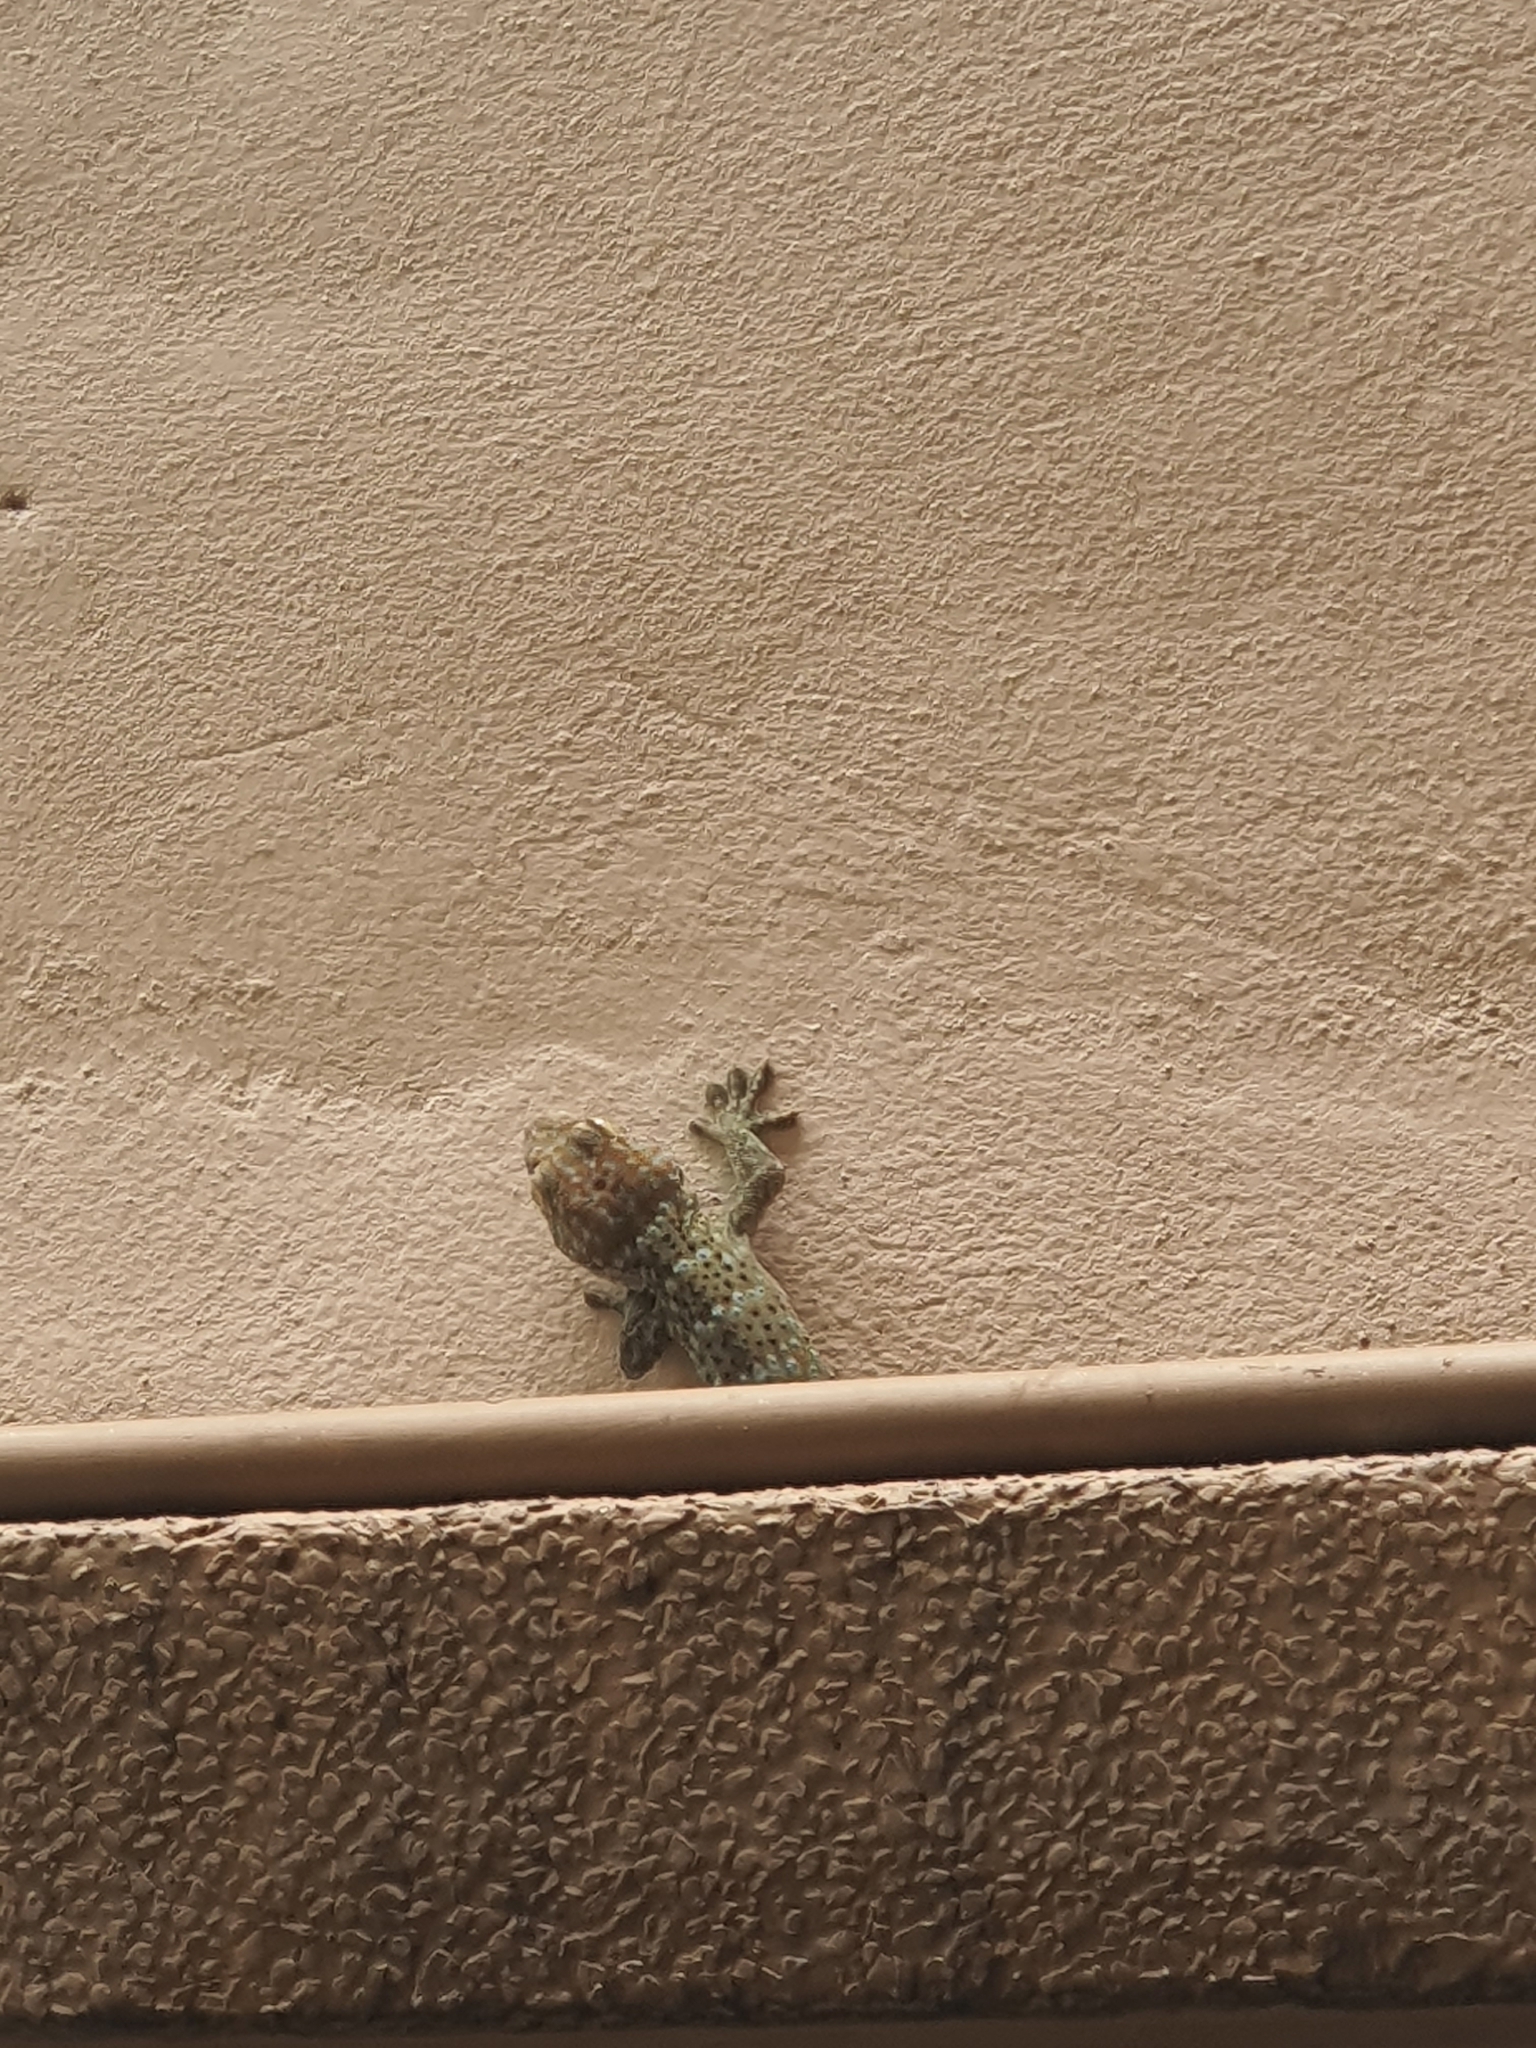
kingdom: Animalia
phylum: Chordata
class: Squamata
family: Gekkonidae
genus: Gekko
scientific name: Gekko gecko
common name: Tokay gecko
